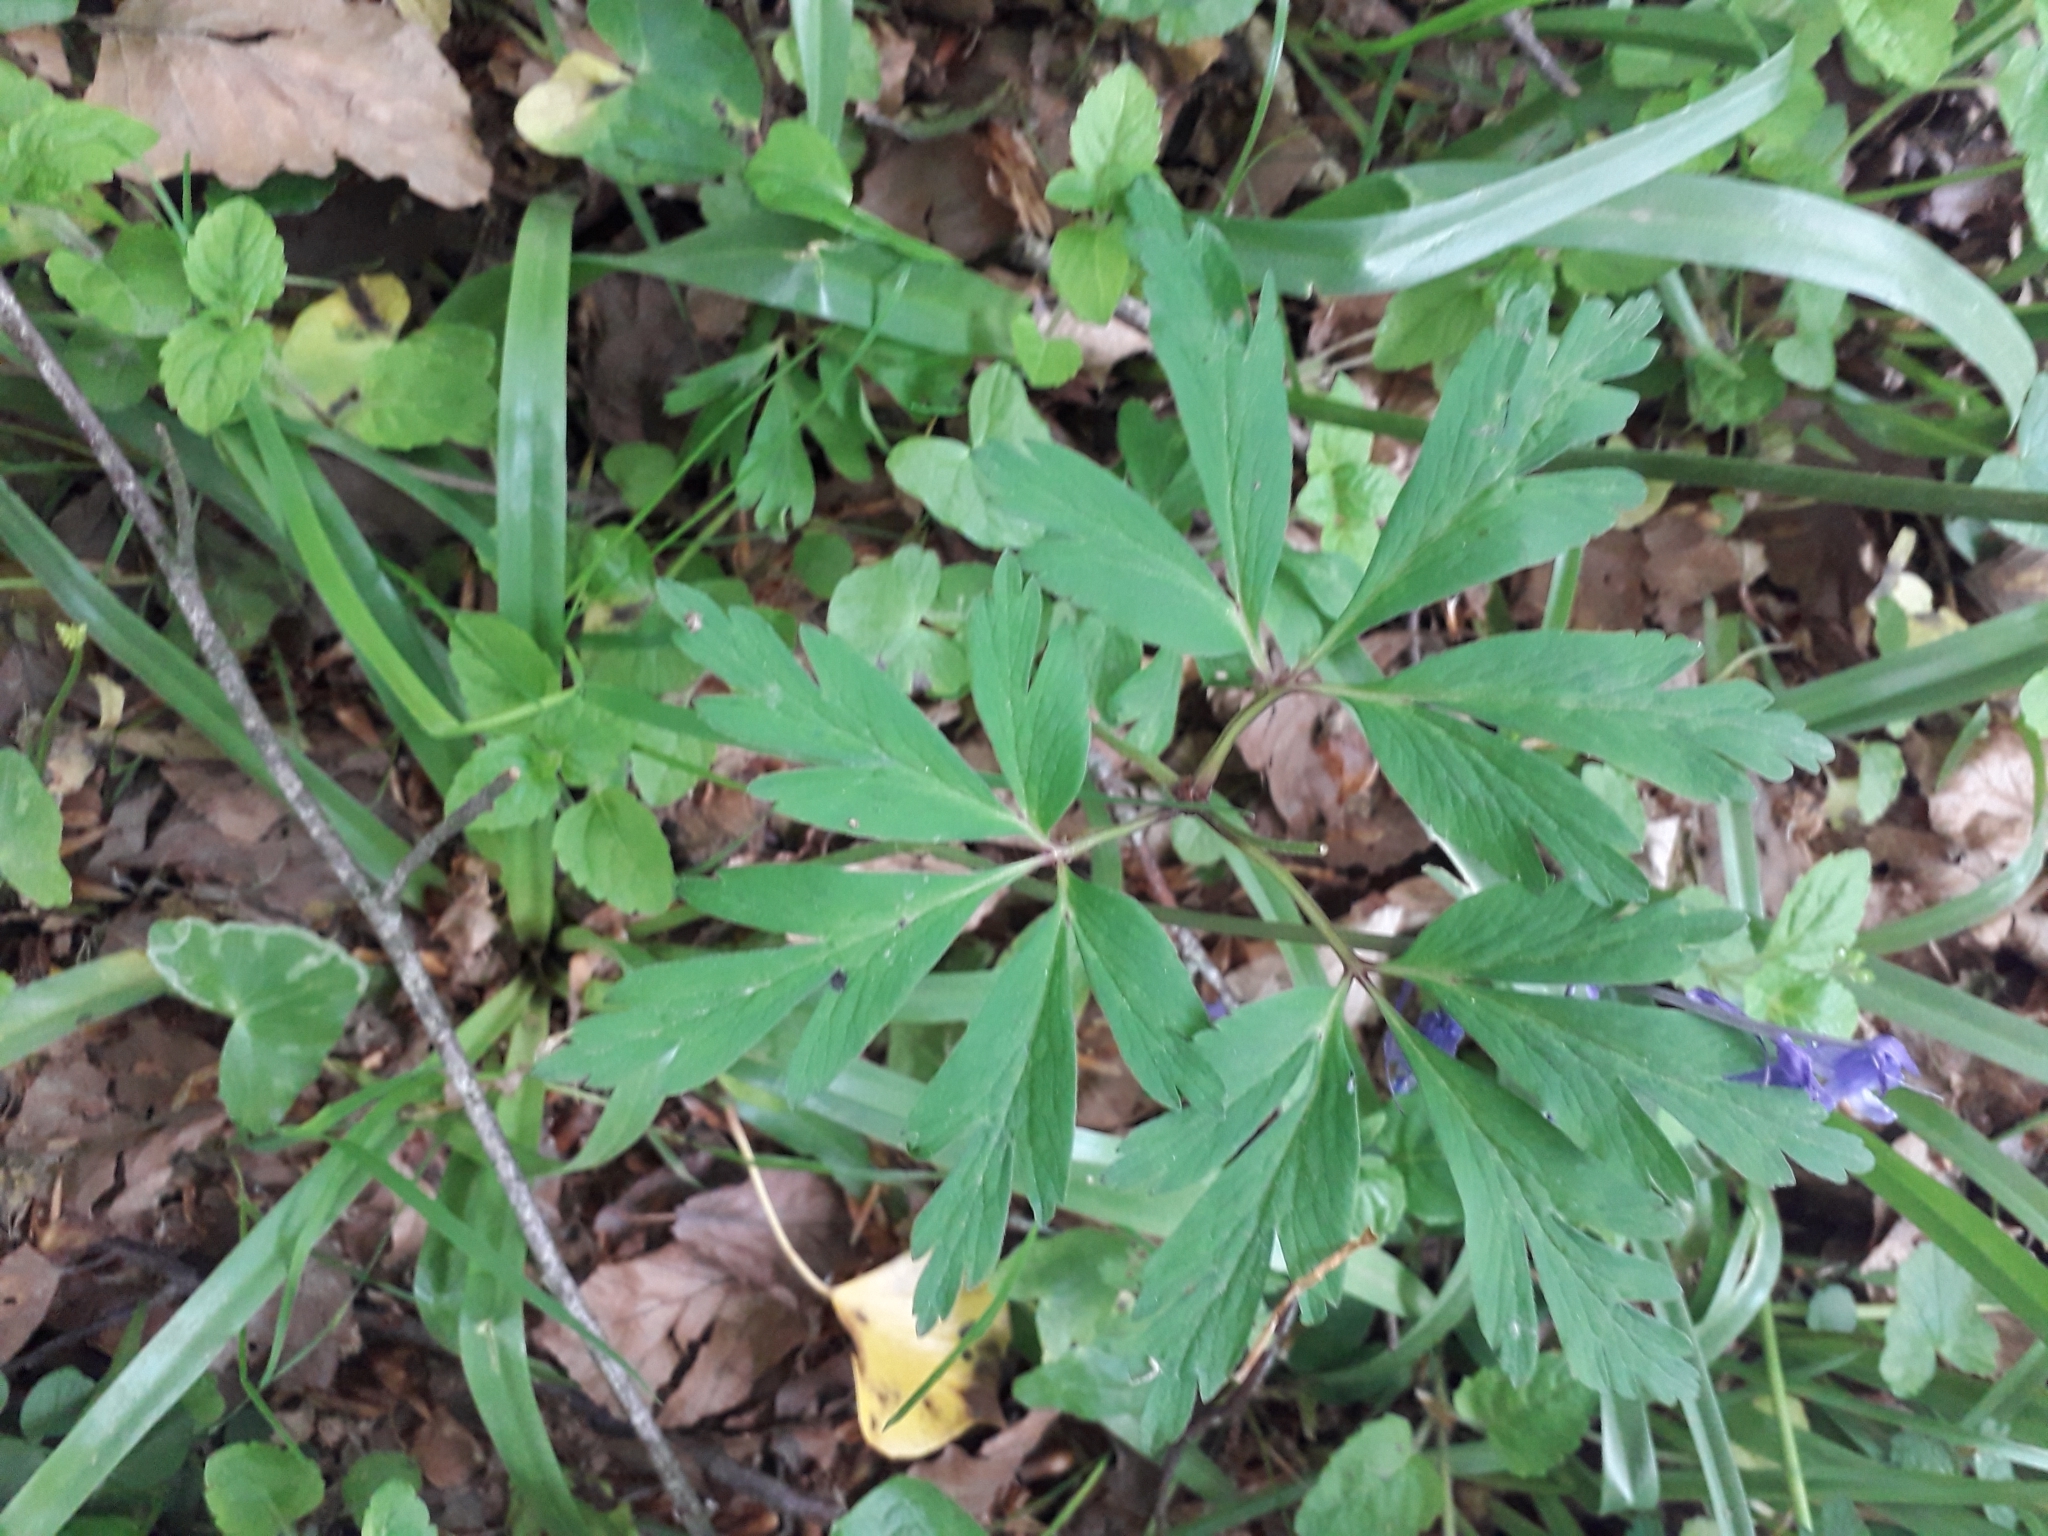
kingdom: Plantae
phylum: Tracheophyta
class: Magnoliopsida
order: Ranunculales
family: Ranunculaceae
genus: Anemone
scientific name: Anemone nemorosa
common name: Wood anemone
